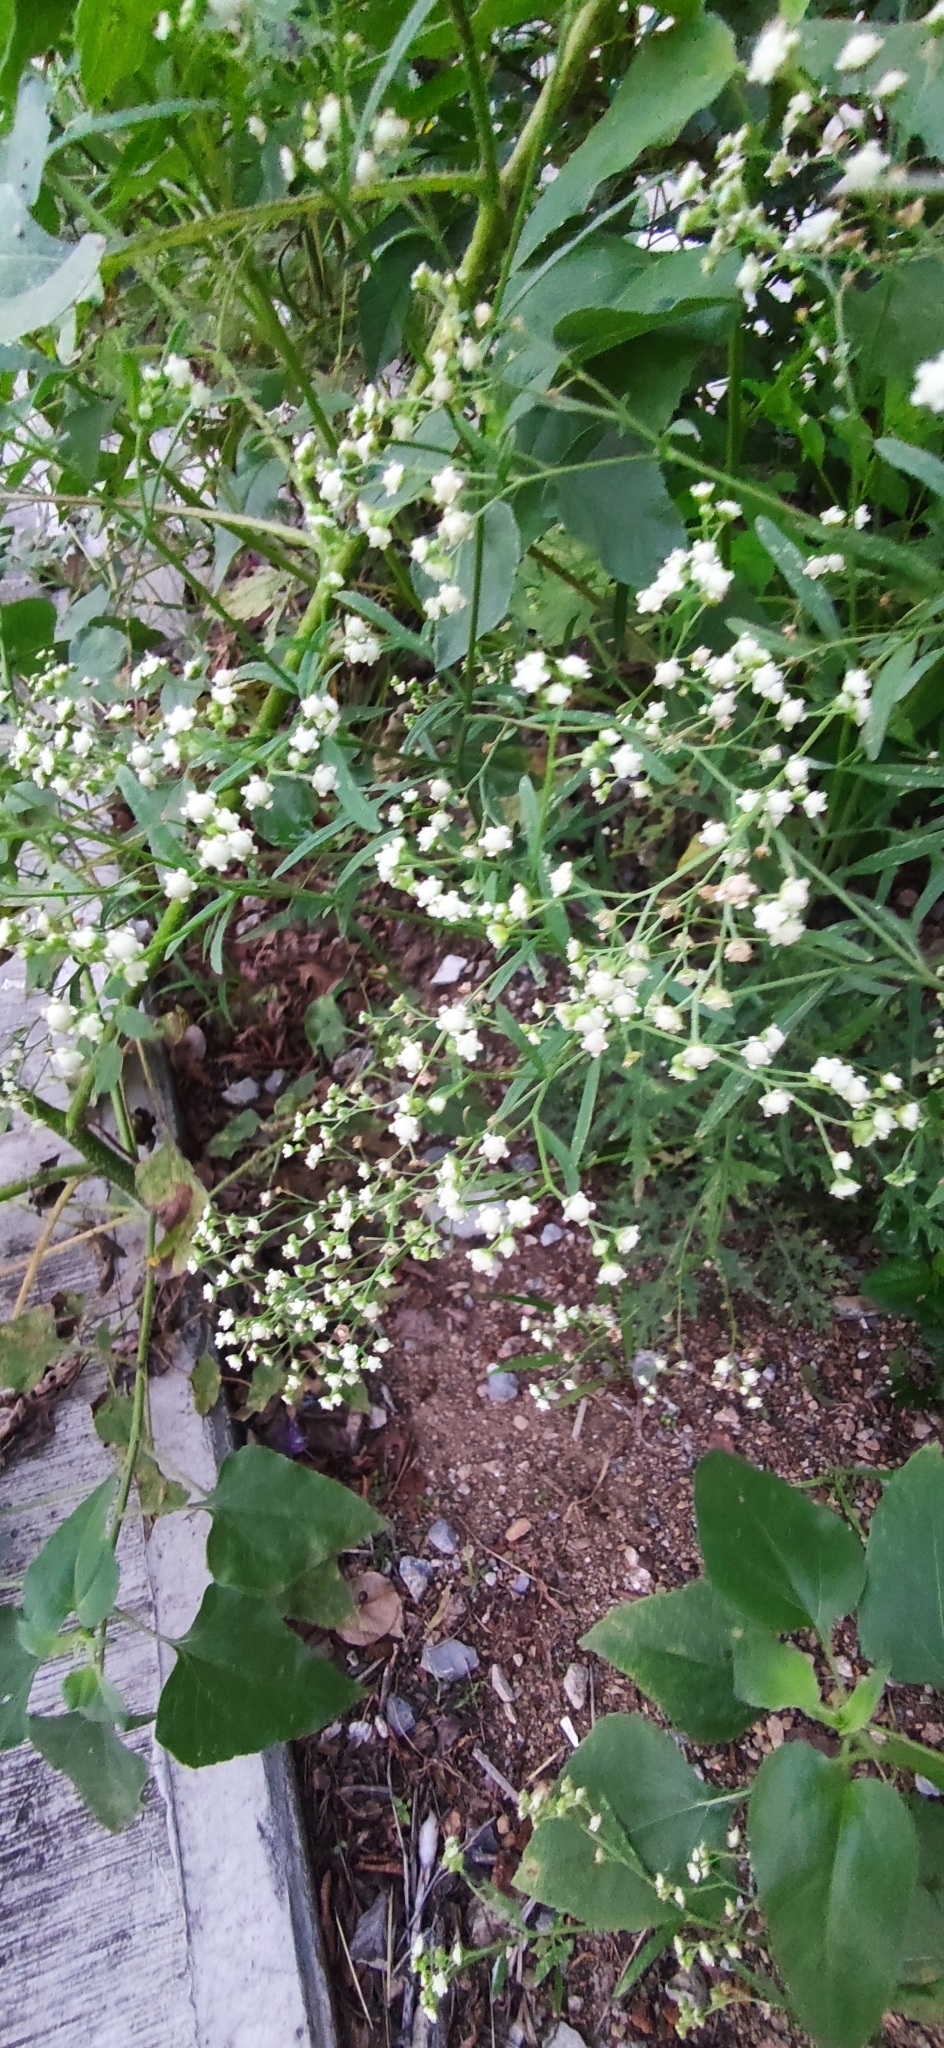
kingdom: Plantae
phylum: Tracheophyta
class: Magnoliopsida
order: Asterales
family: Asteraceae
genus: Parthenium
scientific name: Parthenium hysterophorus
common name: Santa maria feverfew
